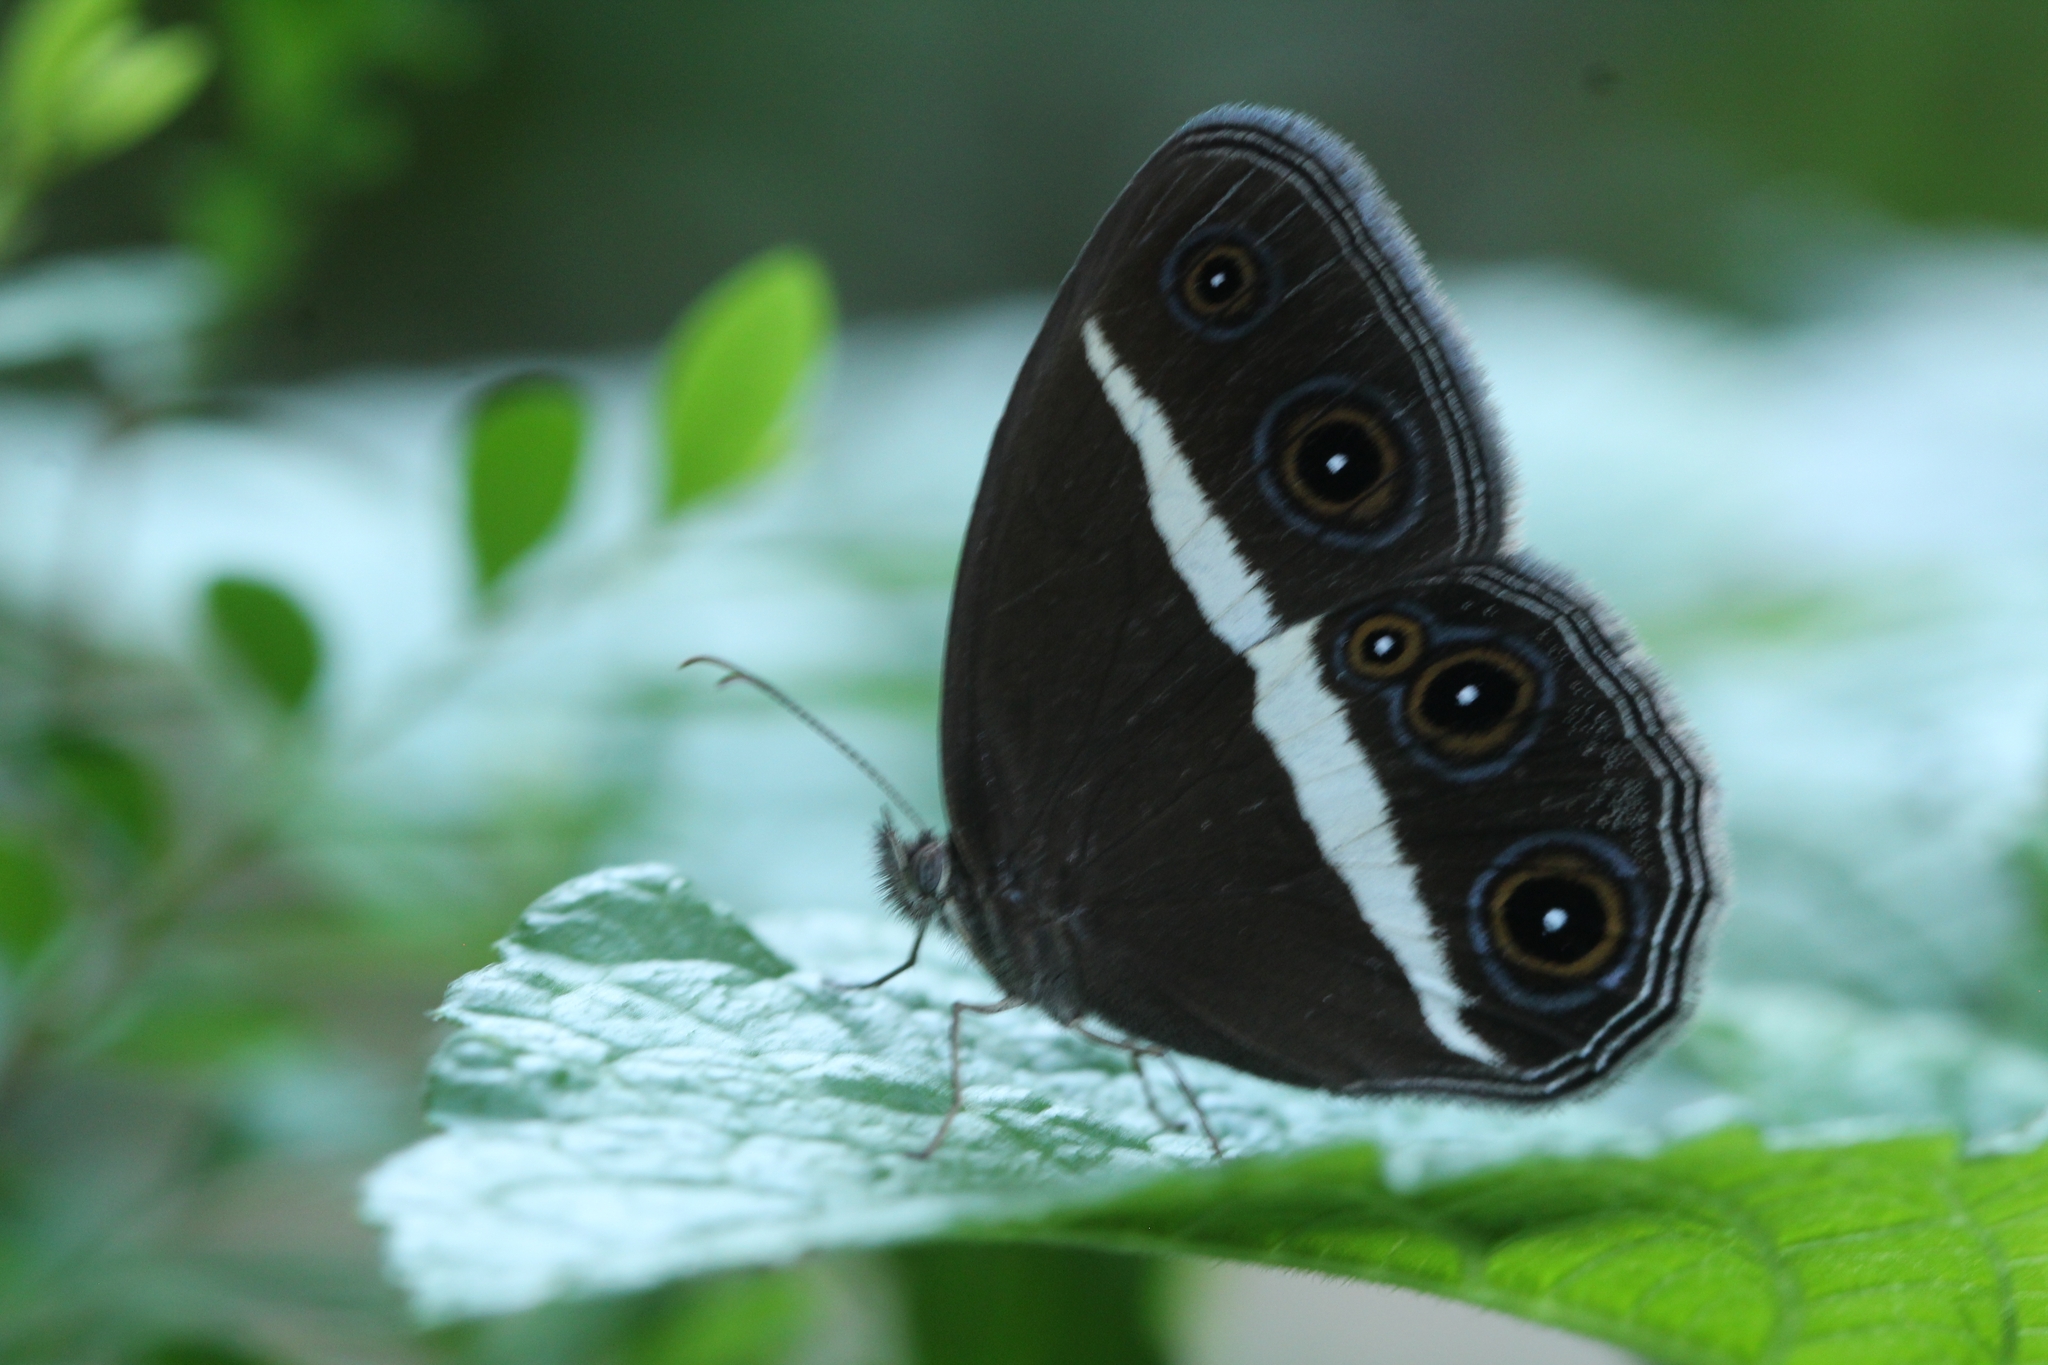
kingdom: Animalia
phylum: Arthropoda
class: Insecta
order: Lepidoptera
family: Nymphalidae
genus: Orsotriaena
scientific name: Orsotriaena medus
